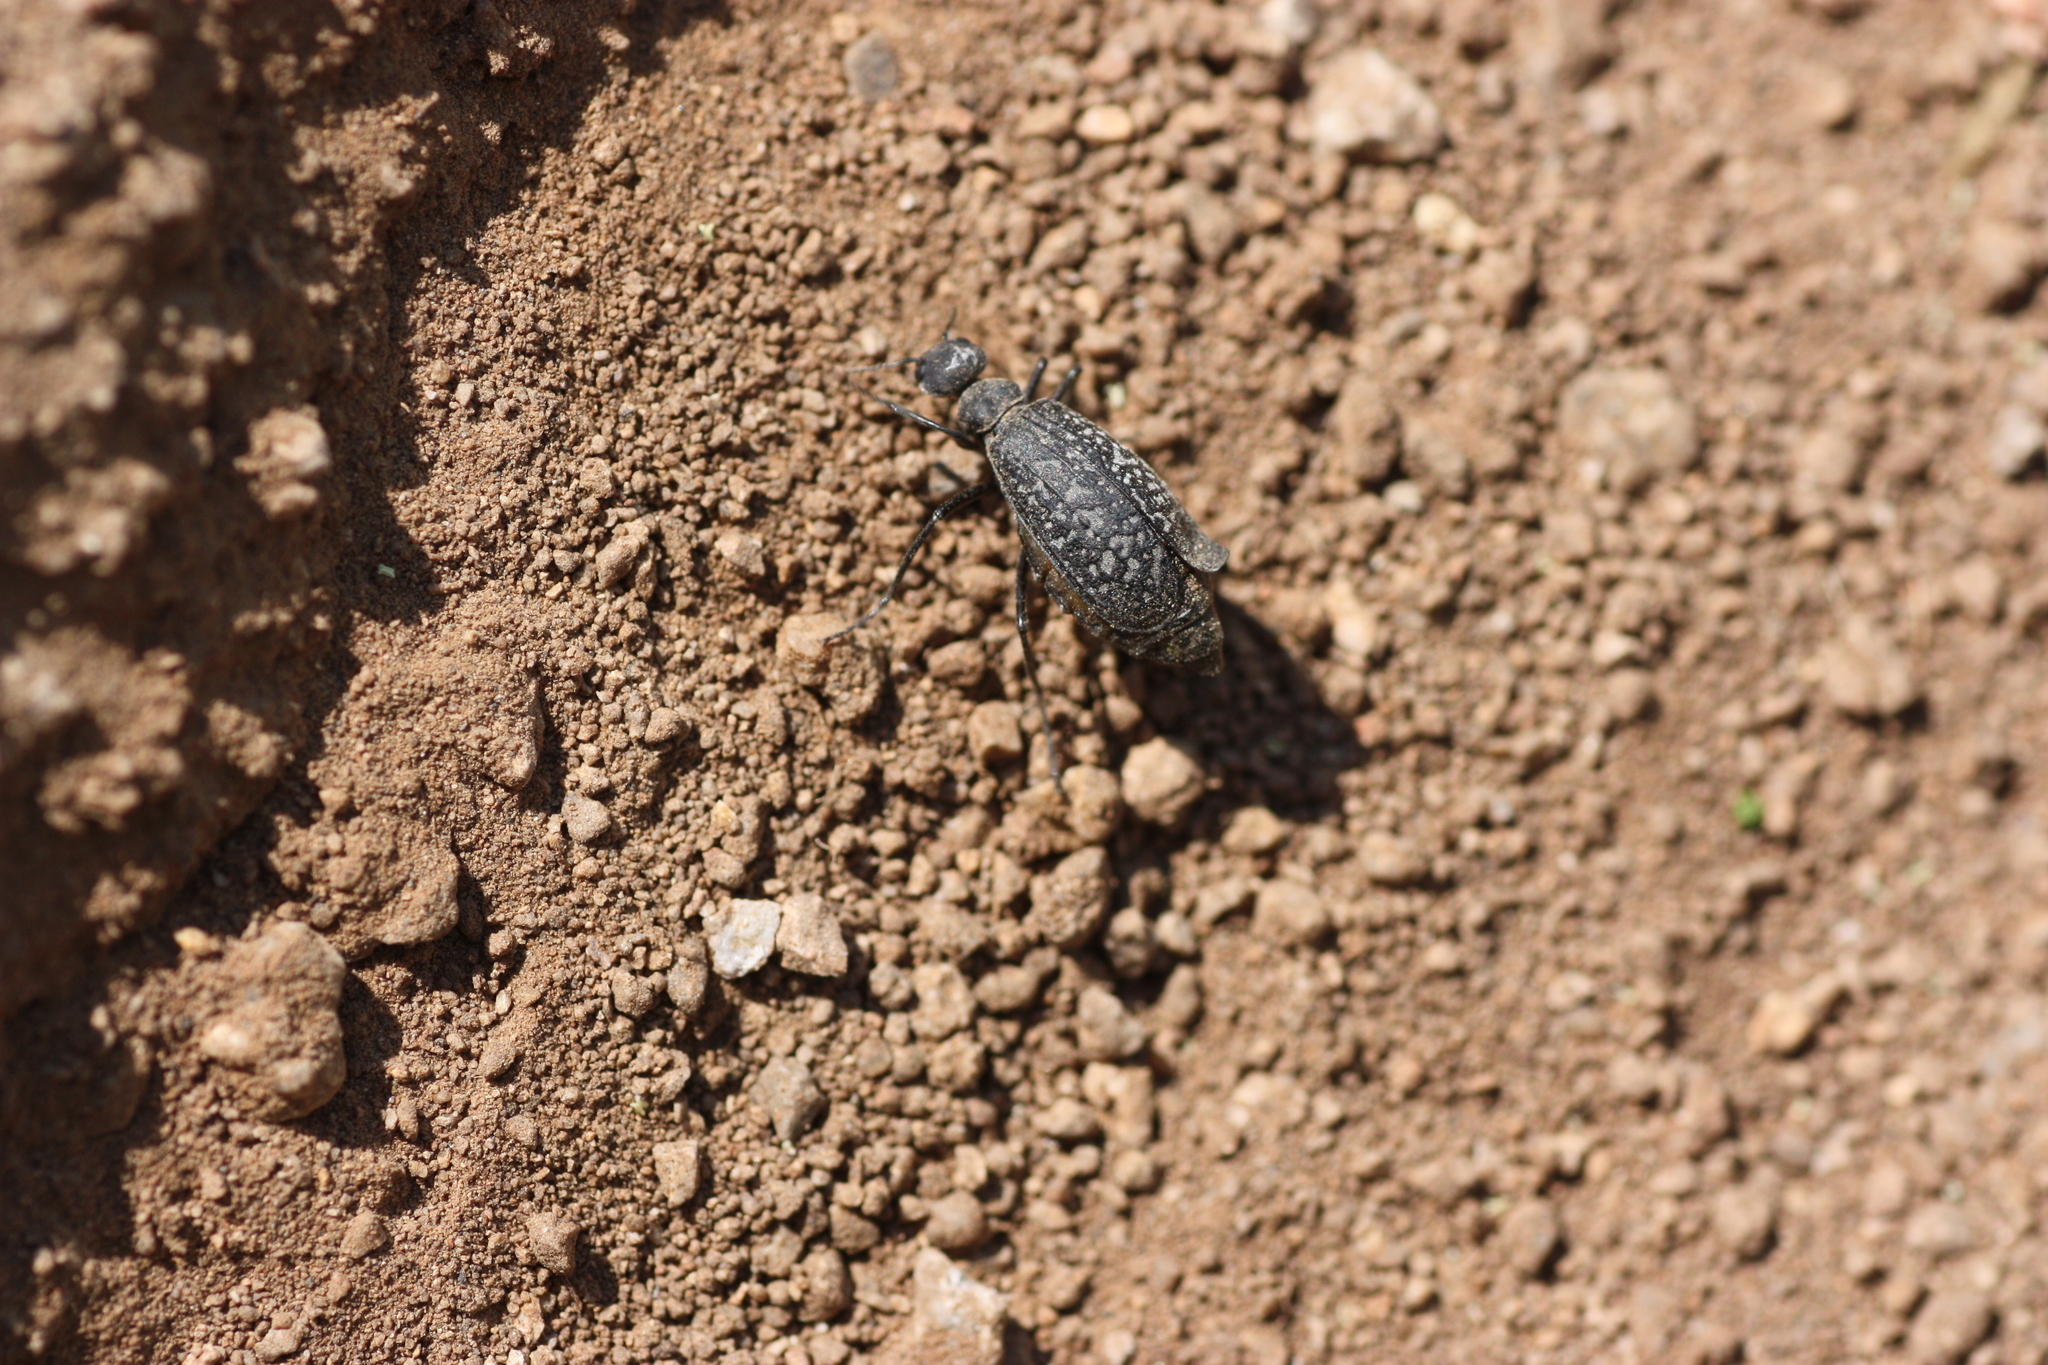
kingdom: Animalia
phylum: Arthropoda
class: Insecta
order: Coleoptera
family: Meloidae
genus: Phodaga
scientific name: Phodaga marmorata
